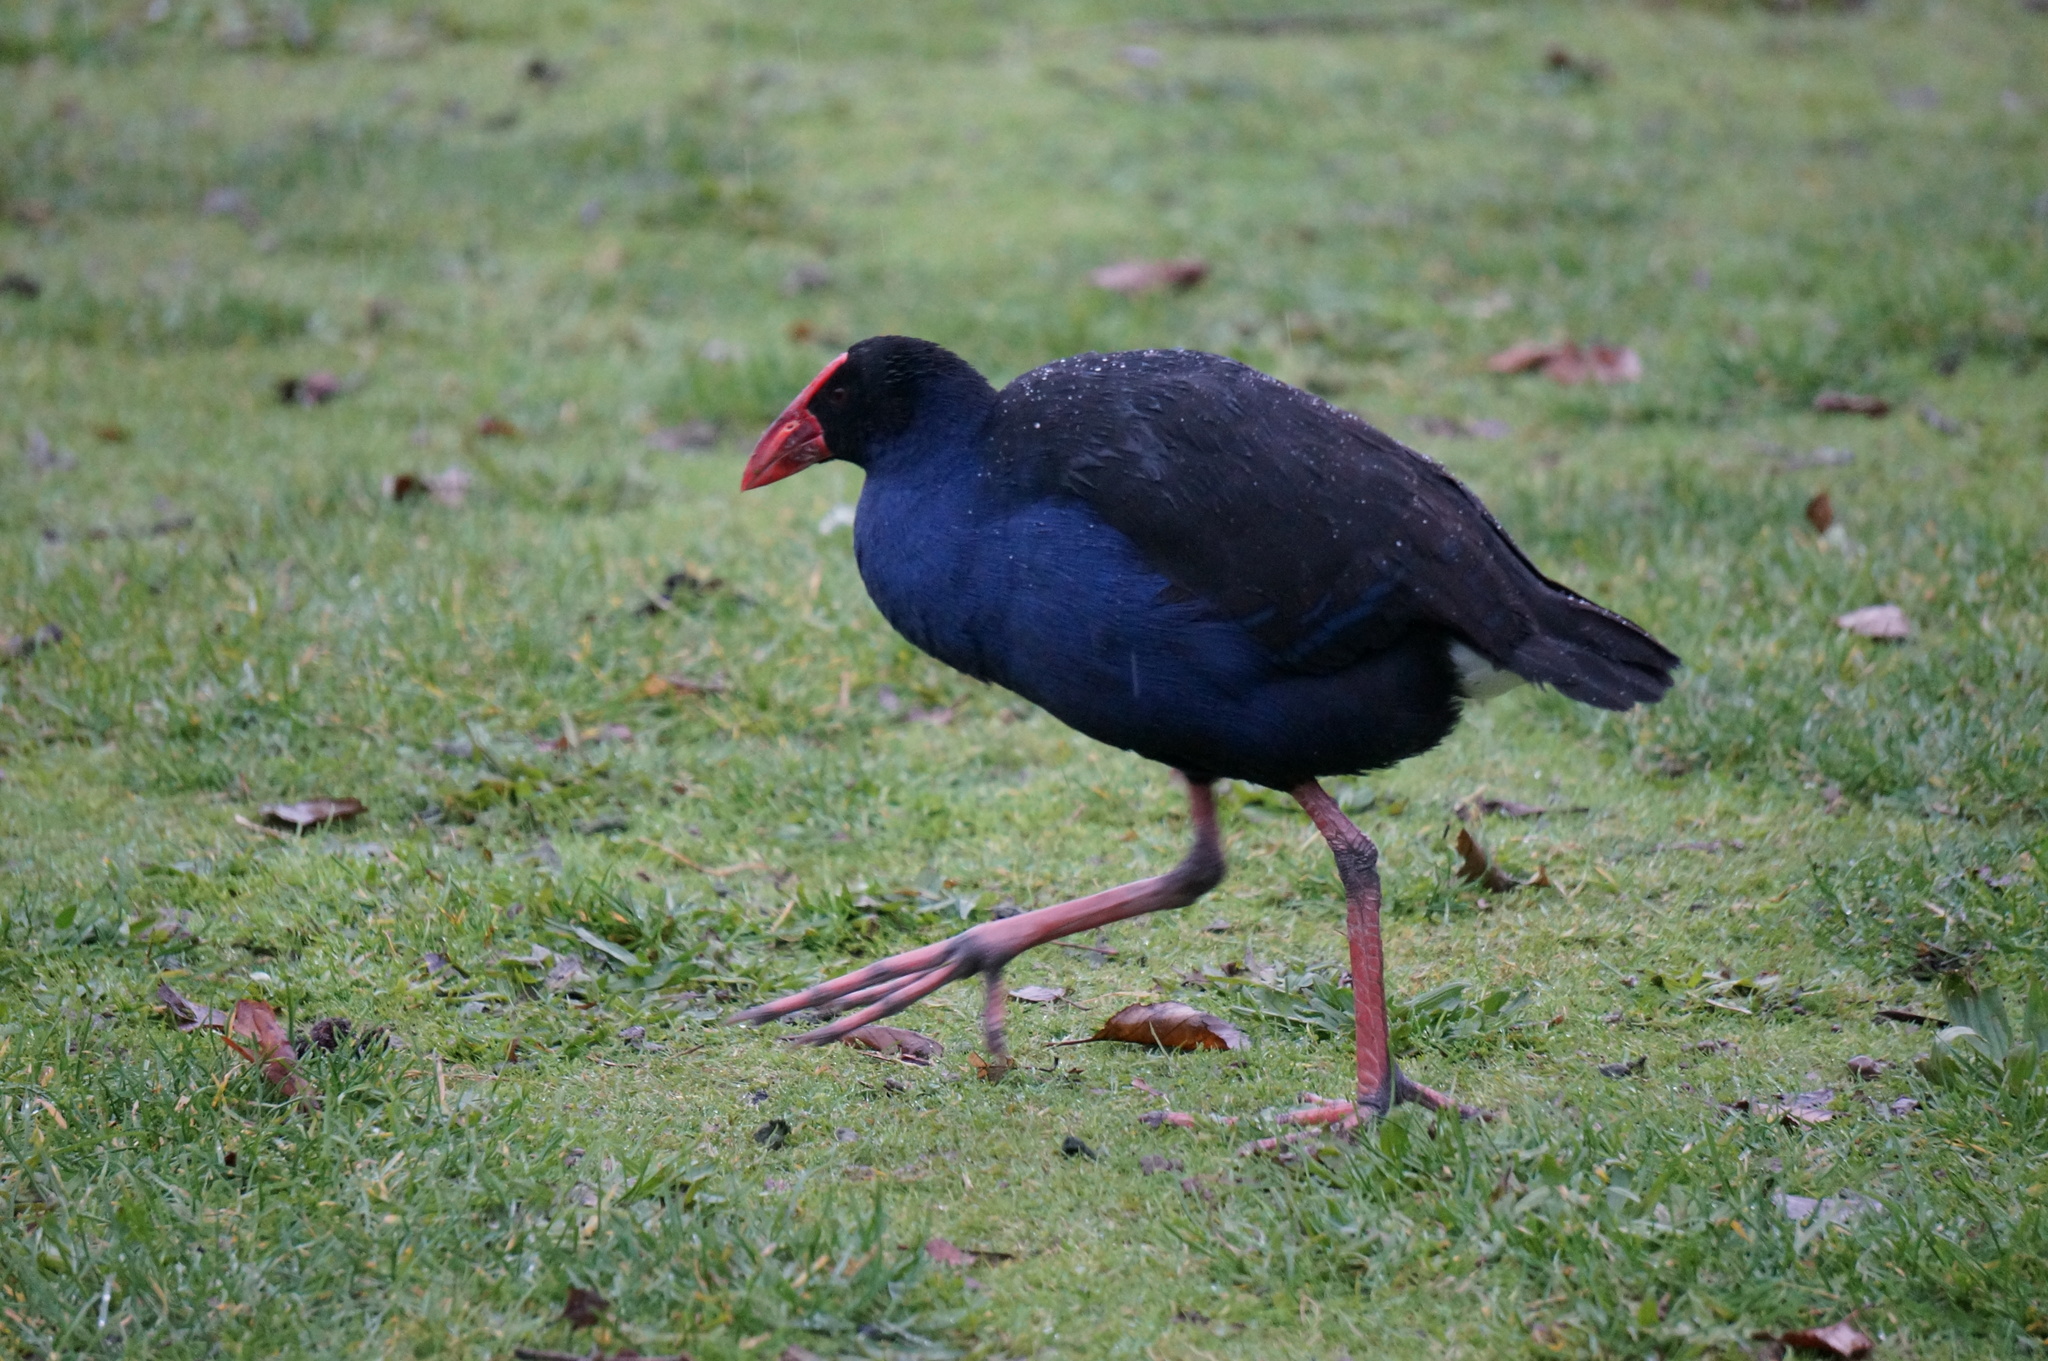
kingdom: Animalia
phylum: Chordata
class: Aves
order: Gruiformes
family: Rallidae
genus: Porphyrio
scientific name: Porphyrio melanotus
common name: Australasian swamphen
